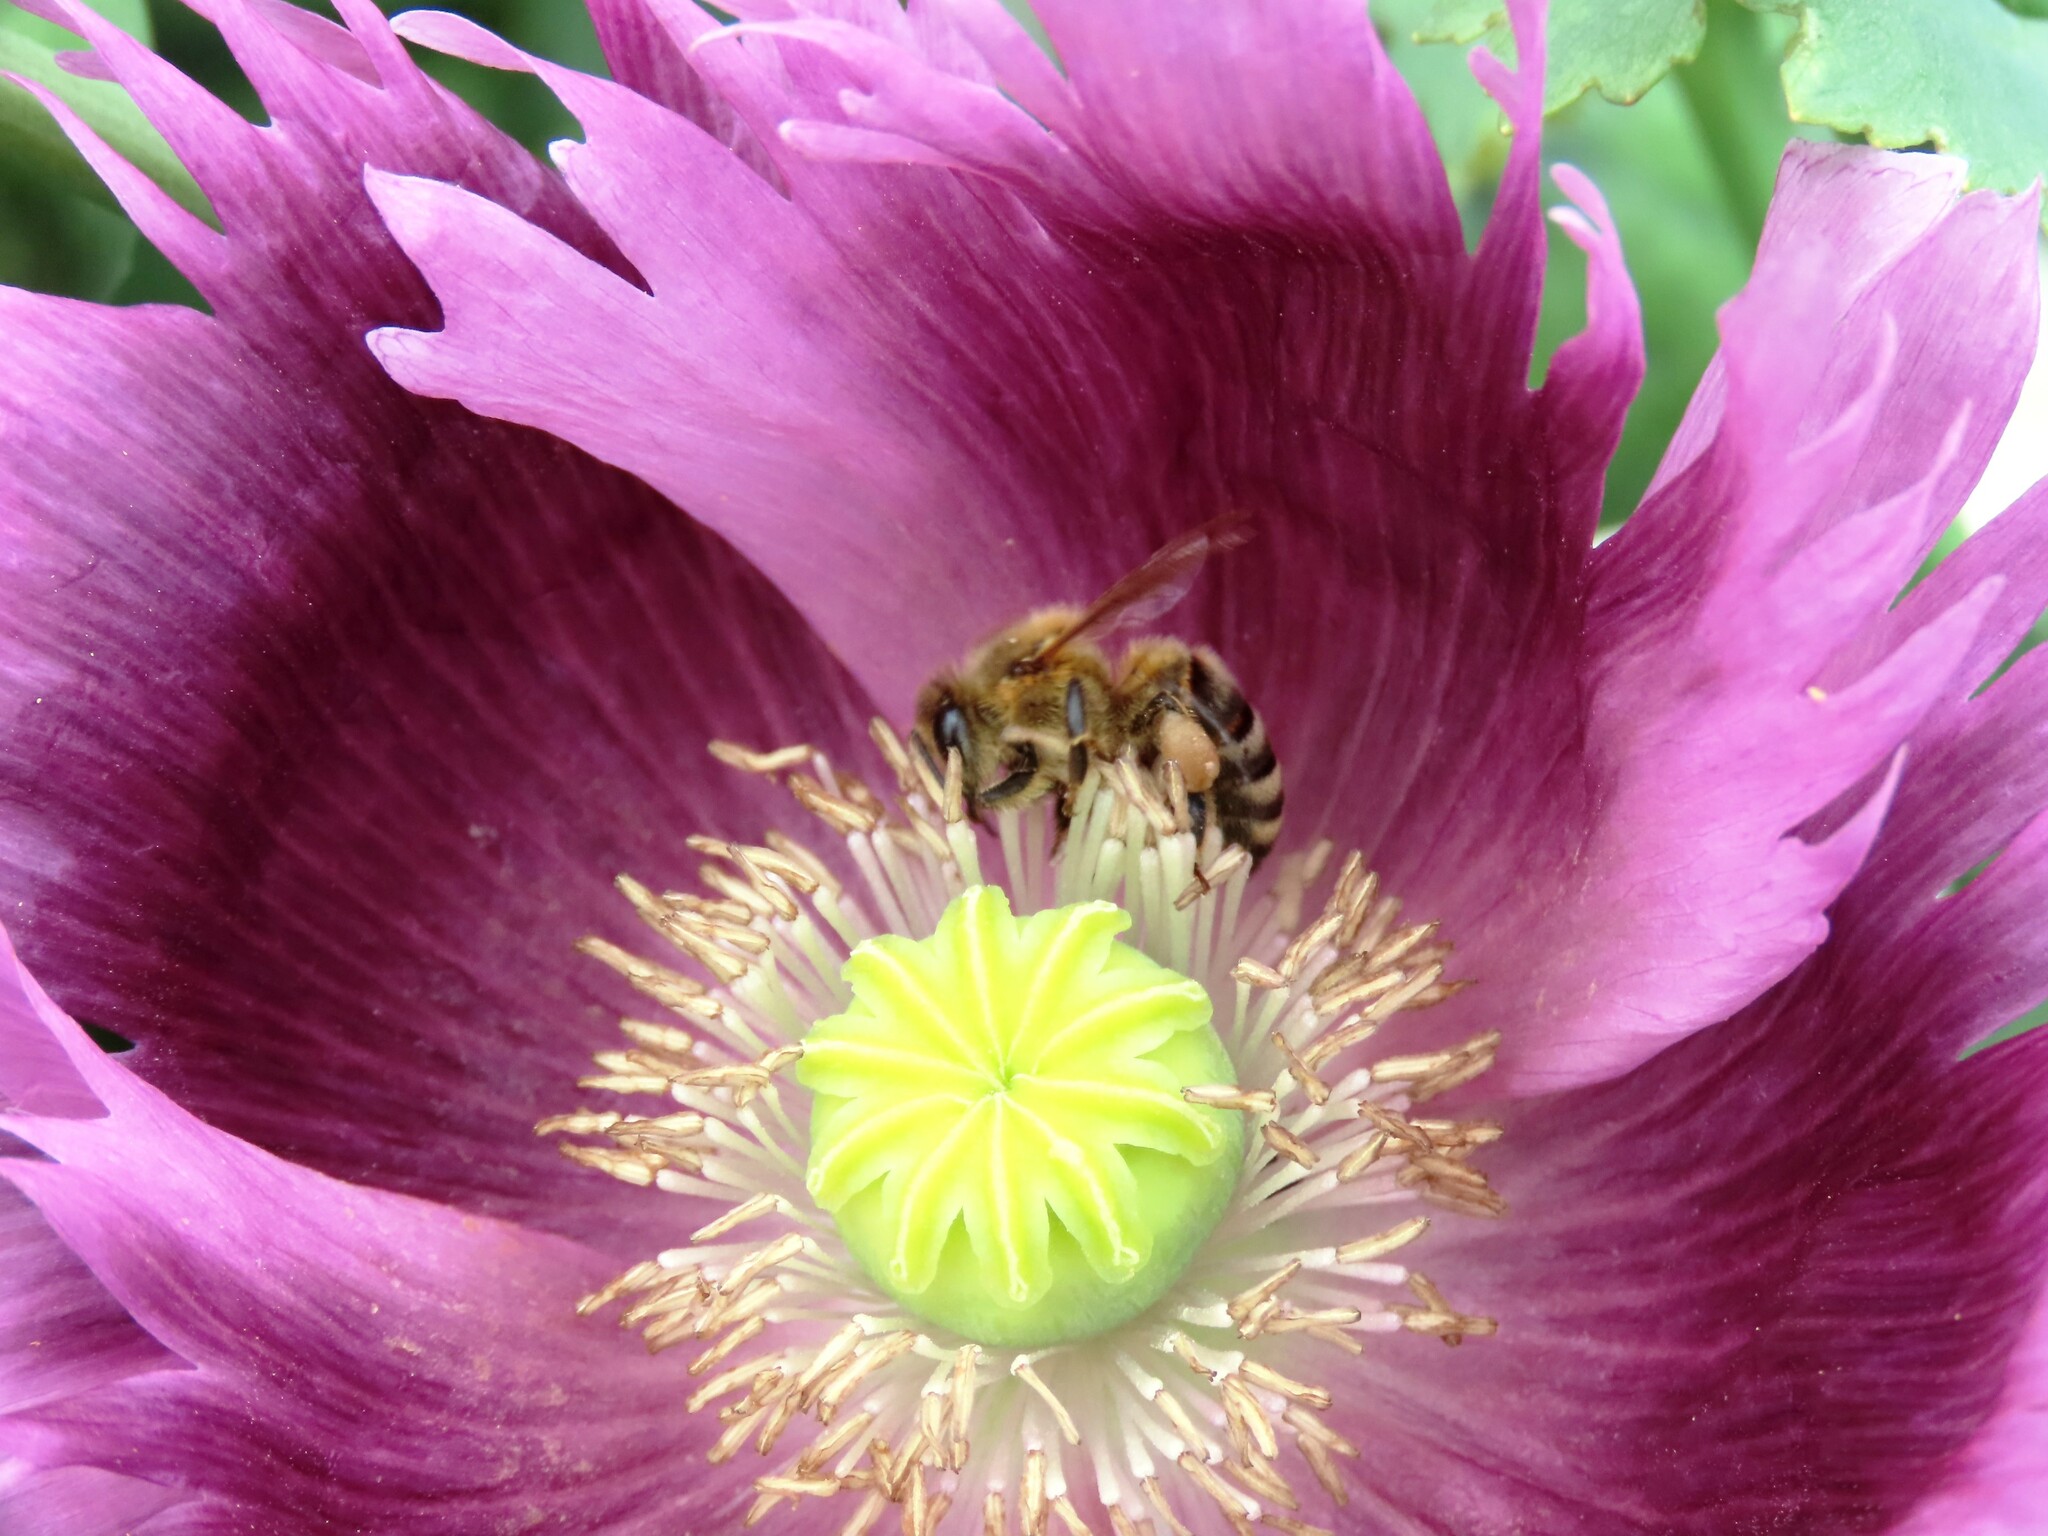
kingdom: Animalia
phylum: Arthropoda
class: Insecta
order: Hymenoptera
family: Apidae
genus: Apis
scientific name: Apis mellifera
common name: Honey bee
